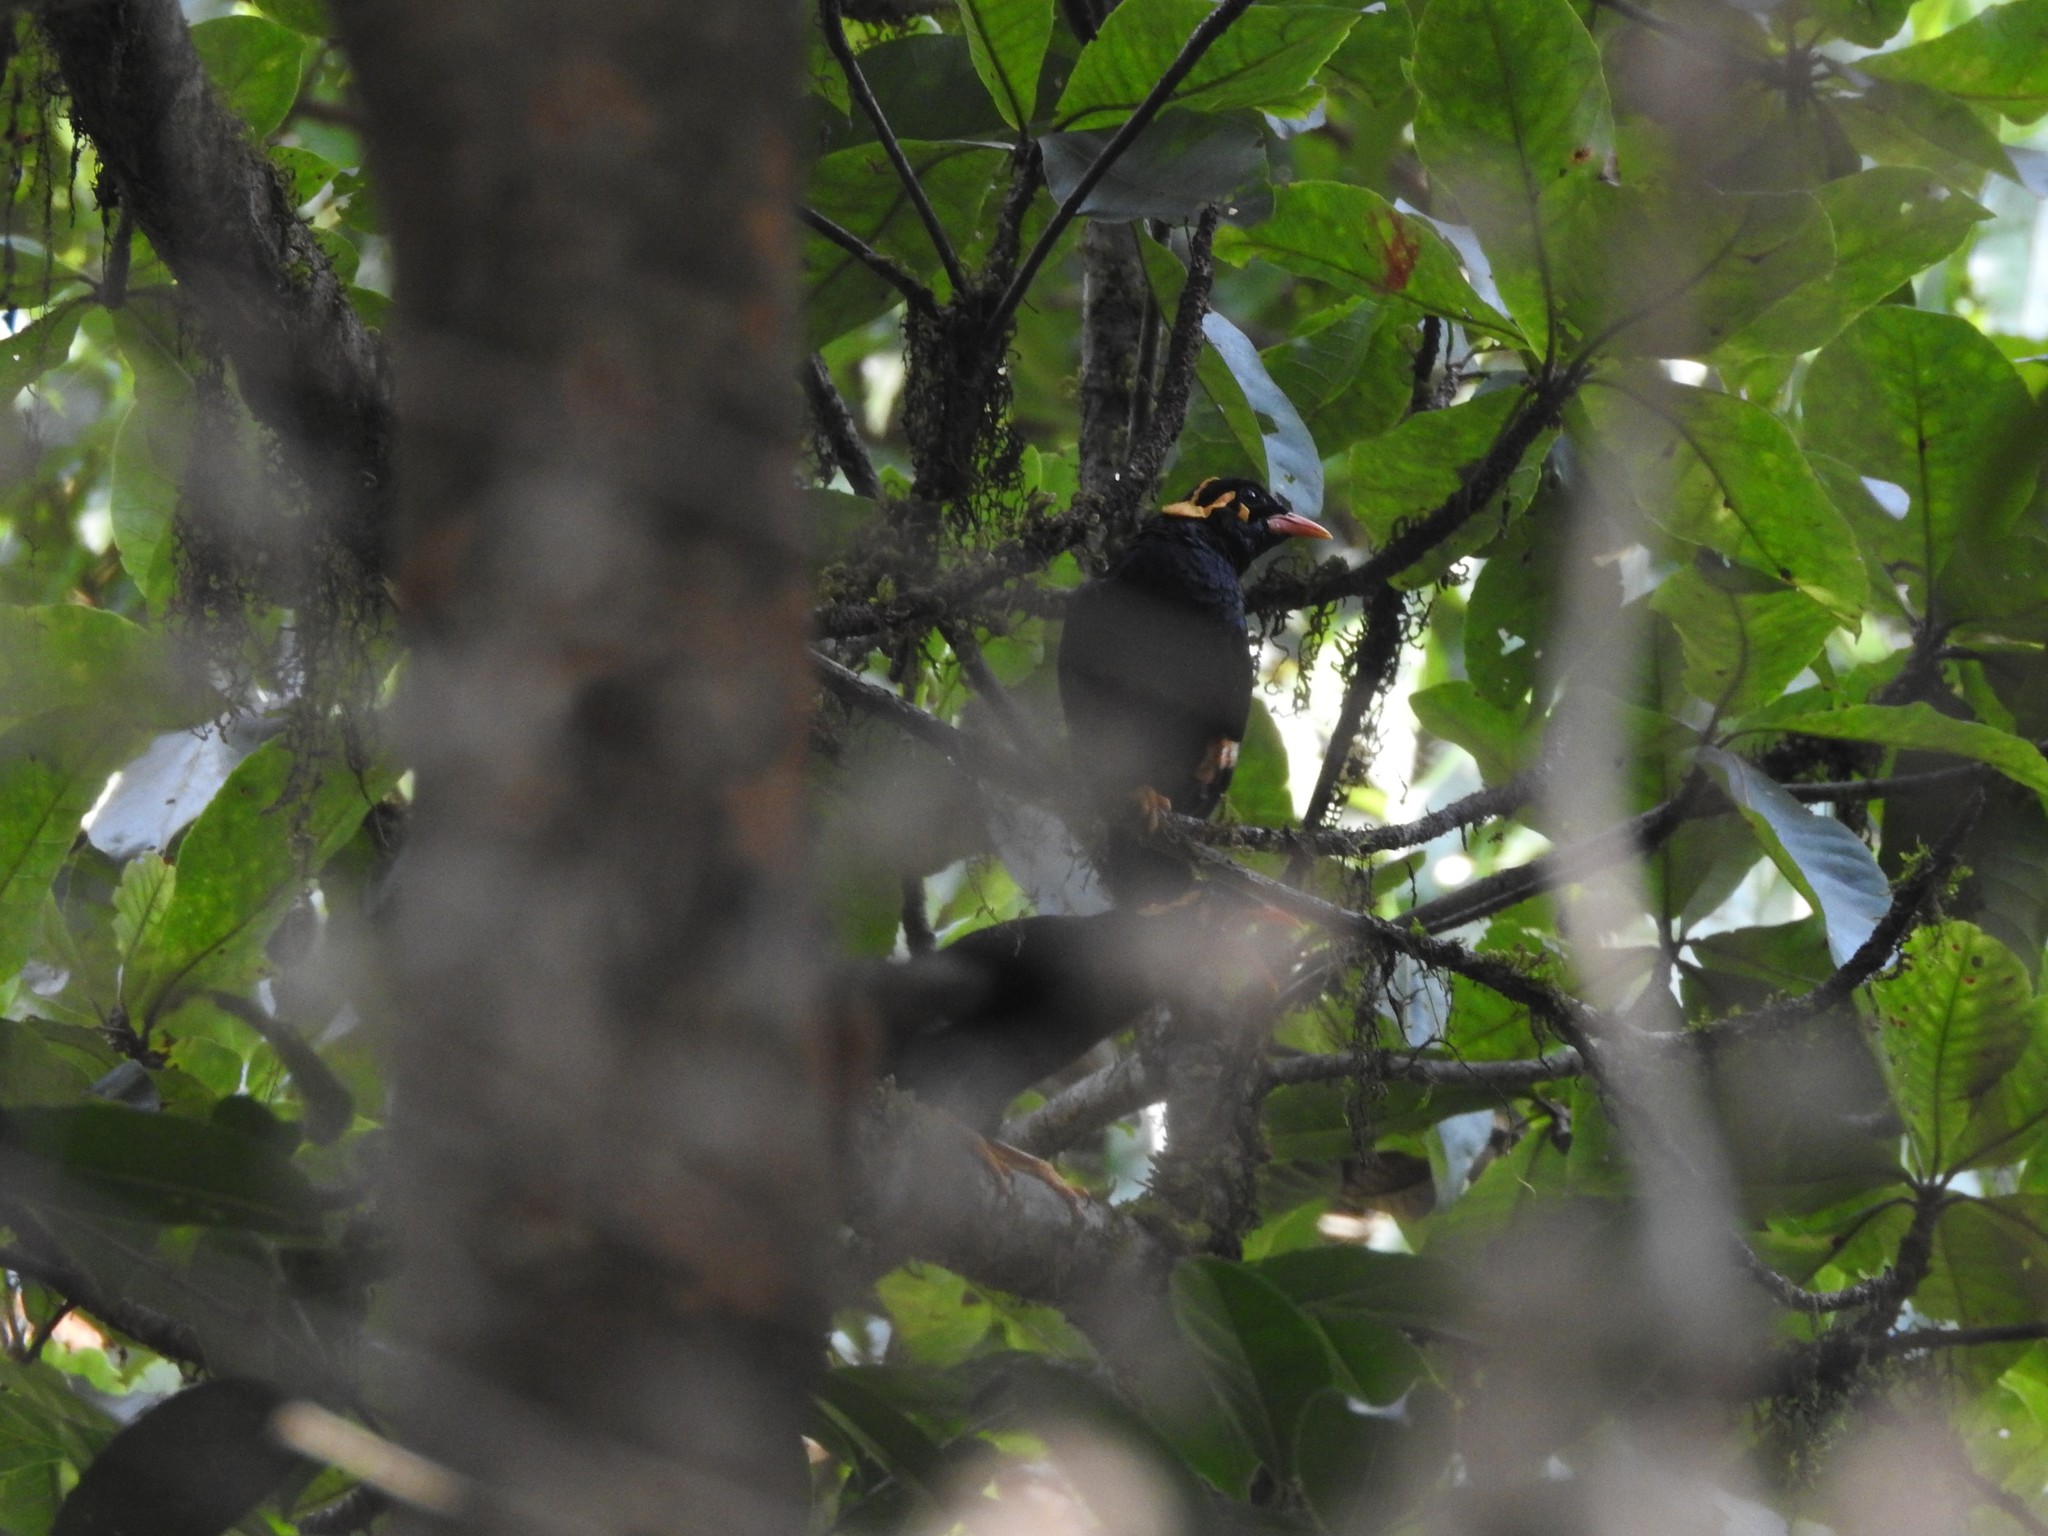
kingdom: Animalia
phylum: Chordata
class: Aves
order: Passeriformes
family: Sturnidae
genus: Gracula
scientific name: Gracula indica
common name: Southern hill myna
